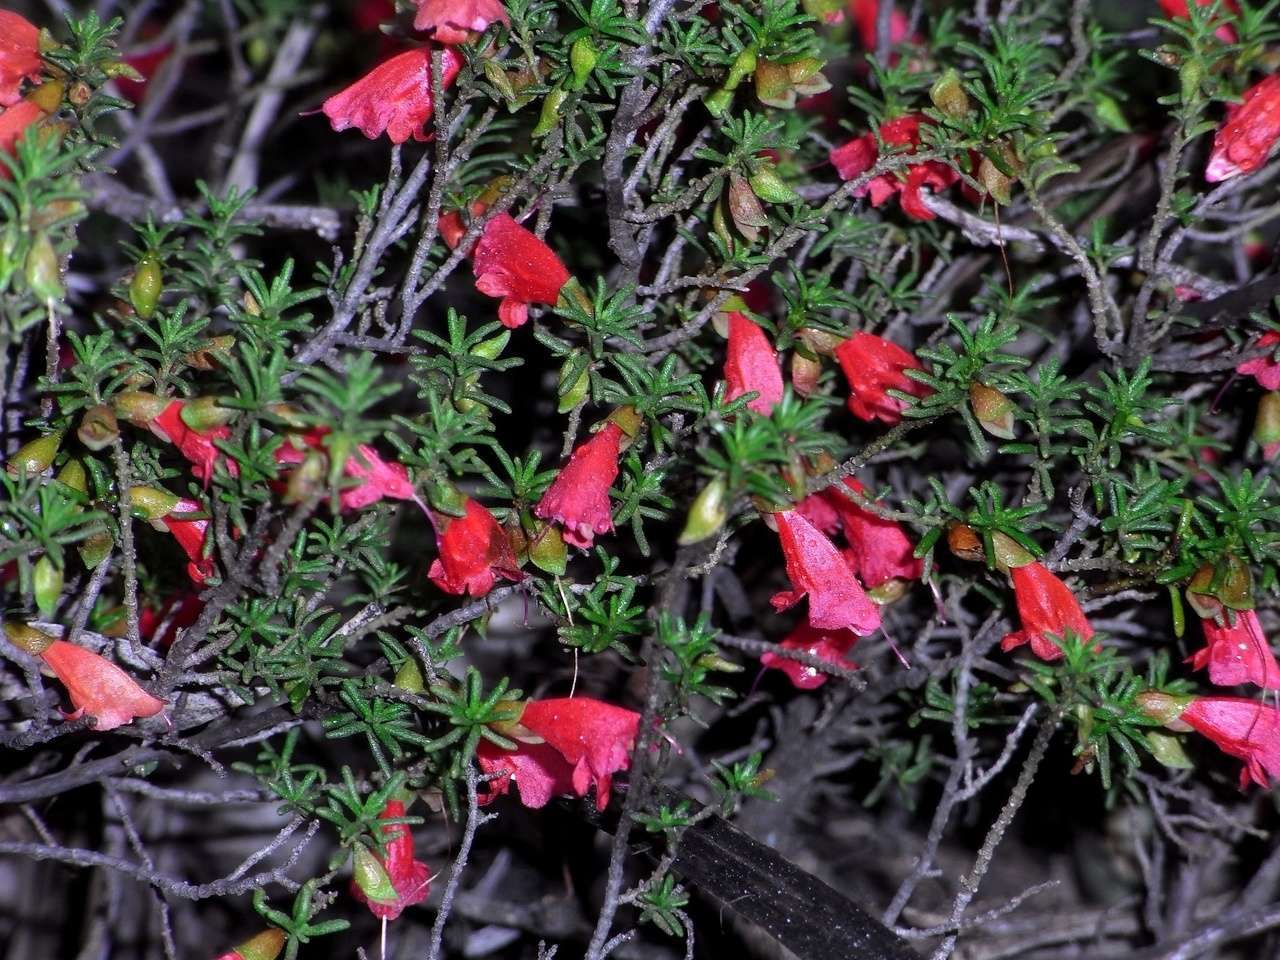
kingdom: Plantae
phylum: Tracheophyta
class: Magnoliopsida
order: Lamiales
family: Lamiaceae
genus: Prostanthera
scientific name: Prostanthera aspalathoides
